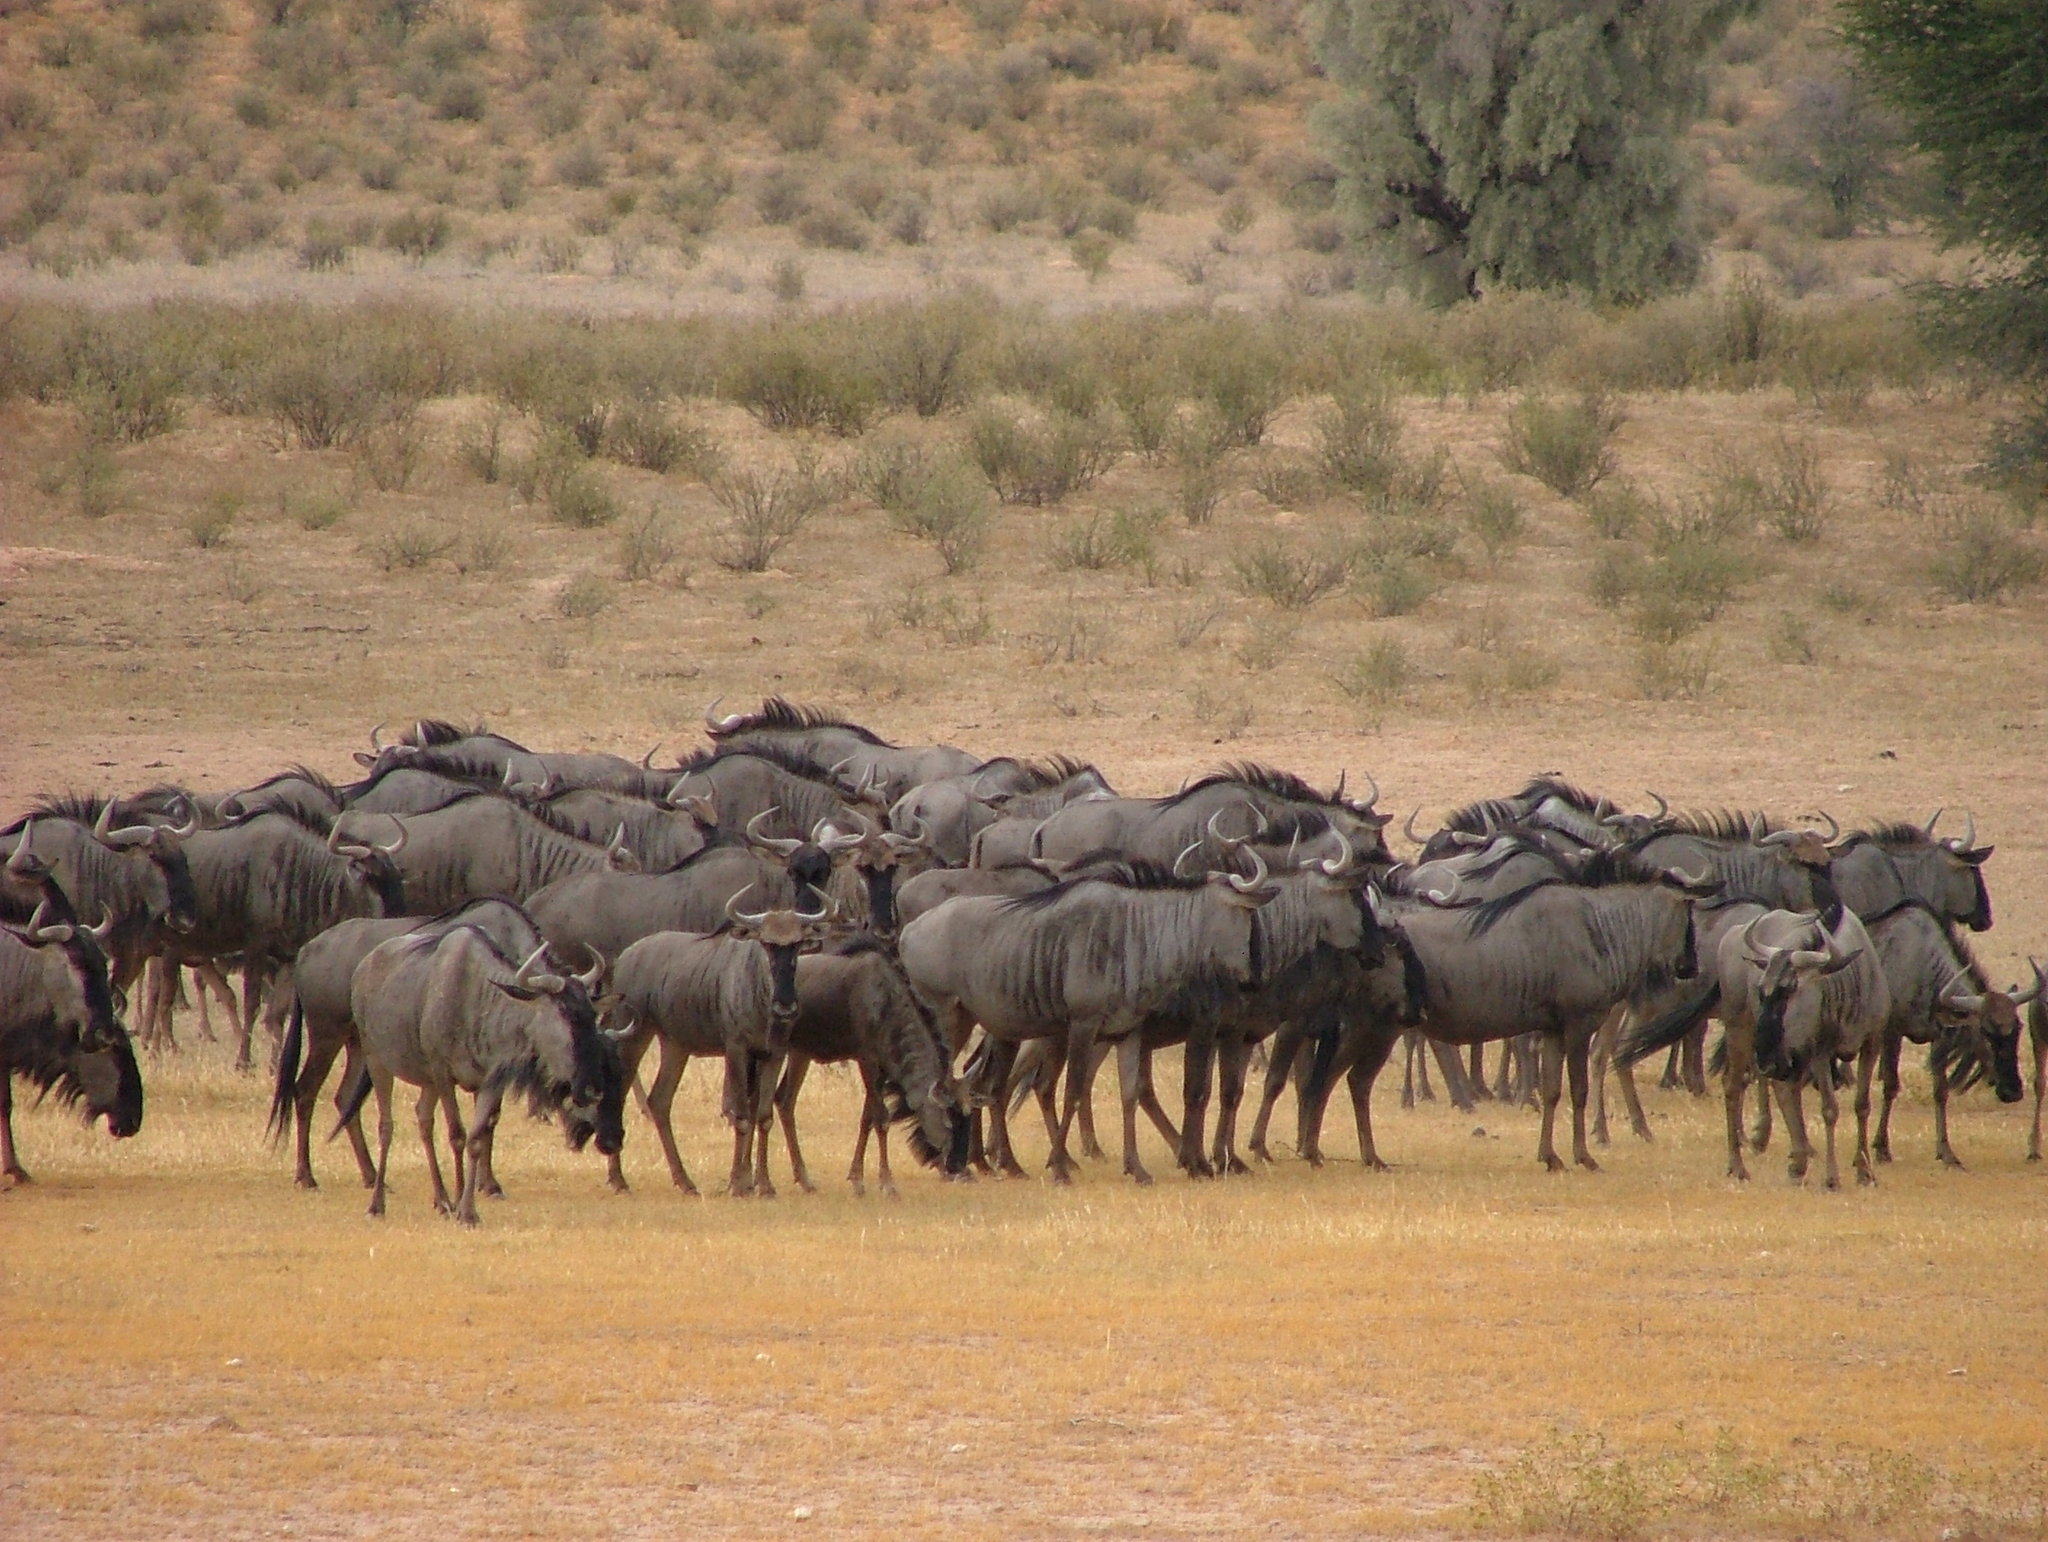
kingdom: Animalia
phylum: Chordata
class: Mammalia
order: Artiodactyla
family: Bovidae
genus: Connochaetes
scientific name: Connochaetes taurinus
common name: Blue wildebeest
